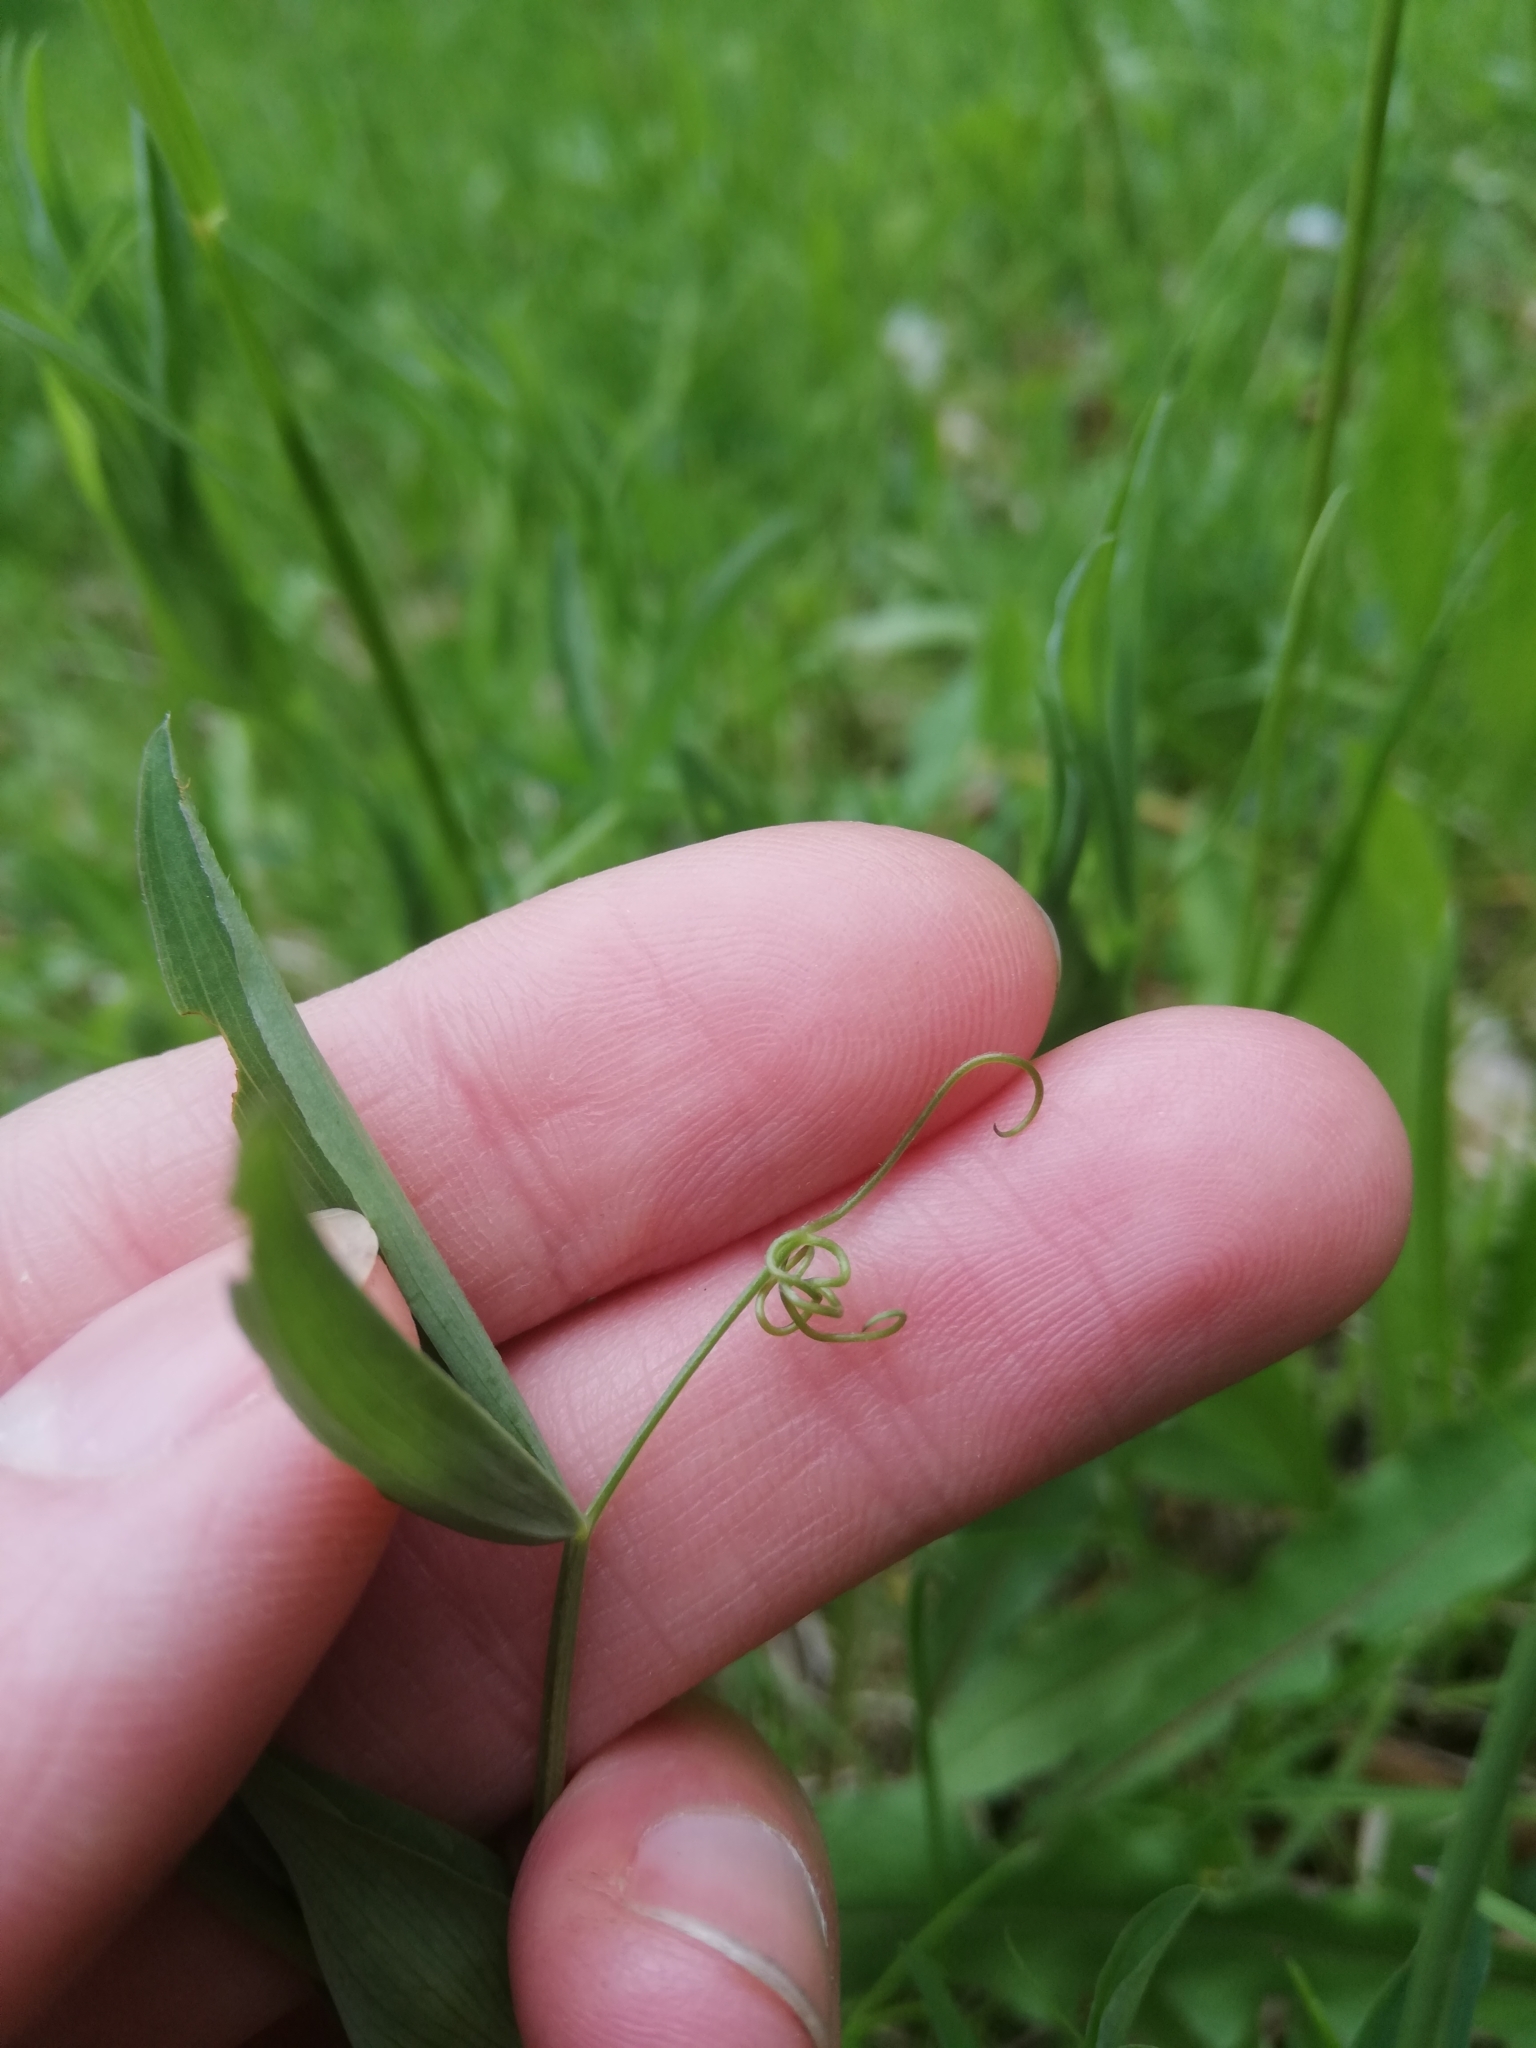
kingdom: Plantae
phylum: Tracheophyta
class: Magnoliopsida
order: Fabales
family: Fabaceae
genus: Lathyrus
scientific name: Lathyrus pratensis
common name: Meadow vetchling
